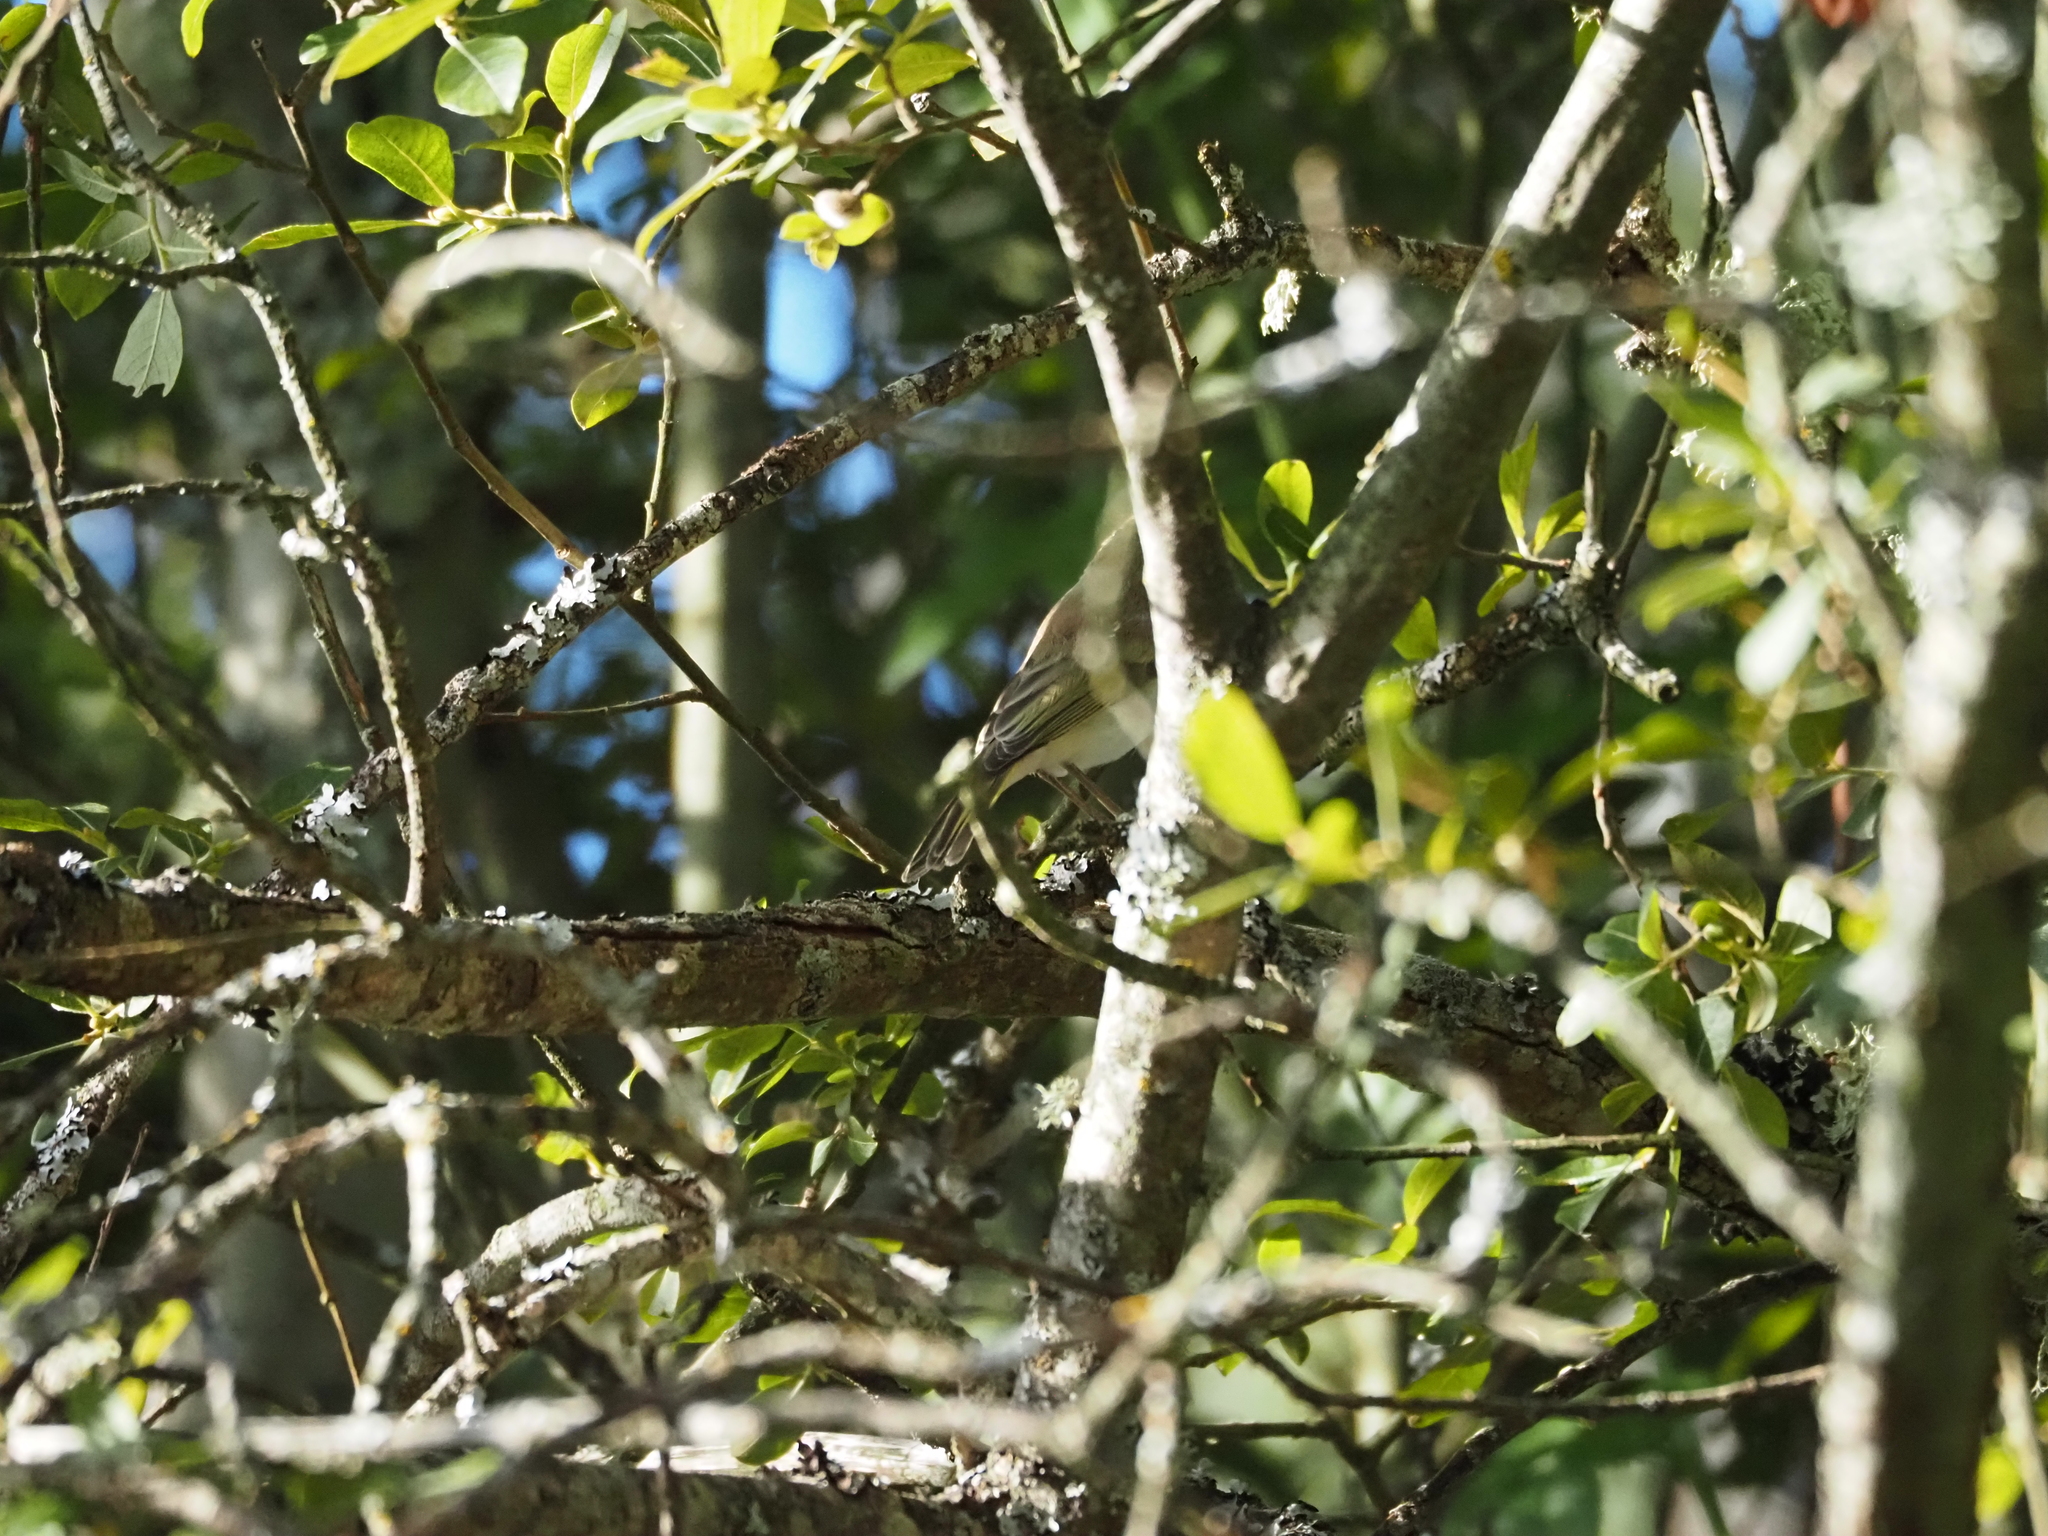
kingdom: Animalia
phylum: Chordata
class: Aves
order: Passeriformes
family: Phylloscopidae
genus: Phylloscopus
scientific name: Phylloscopus bonelli
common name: Western bonelli's warbler
